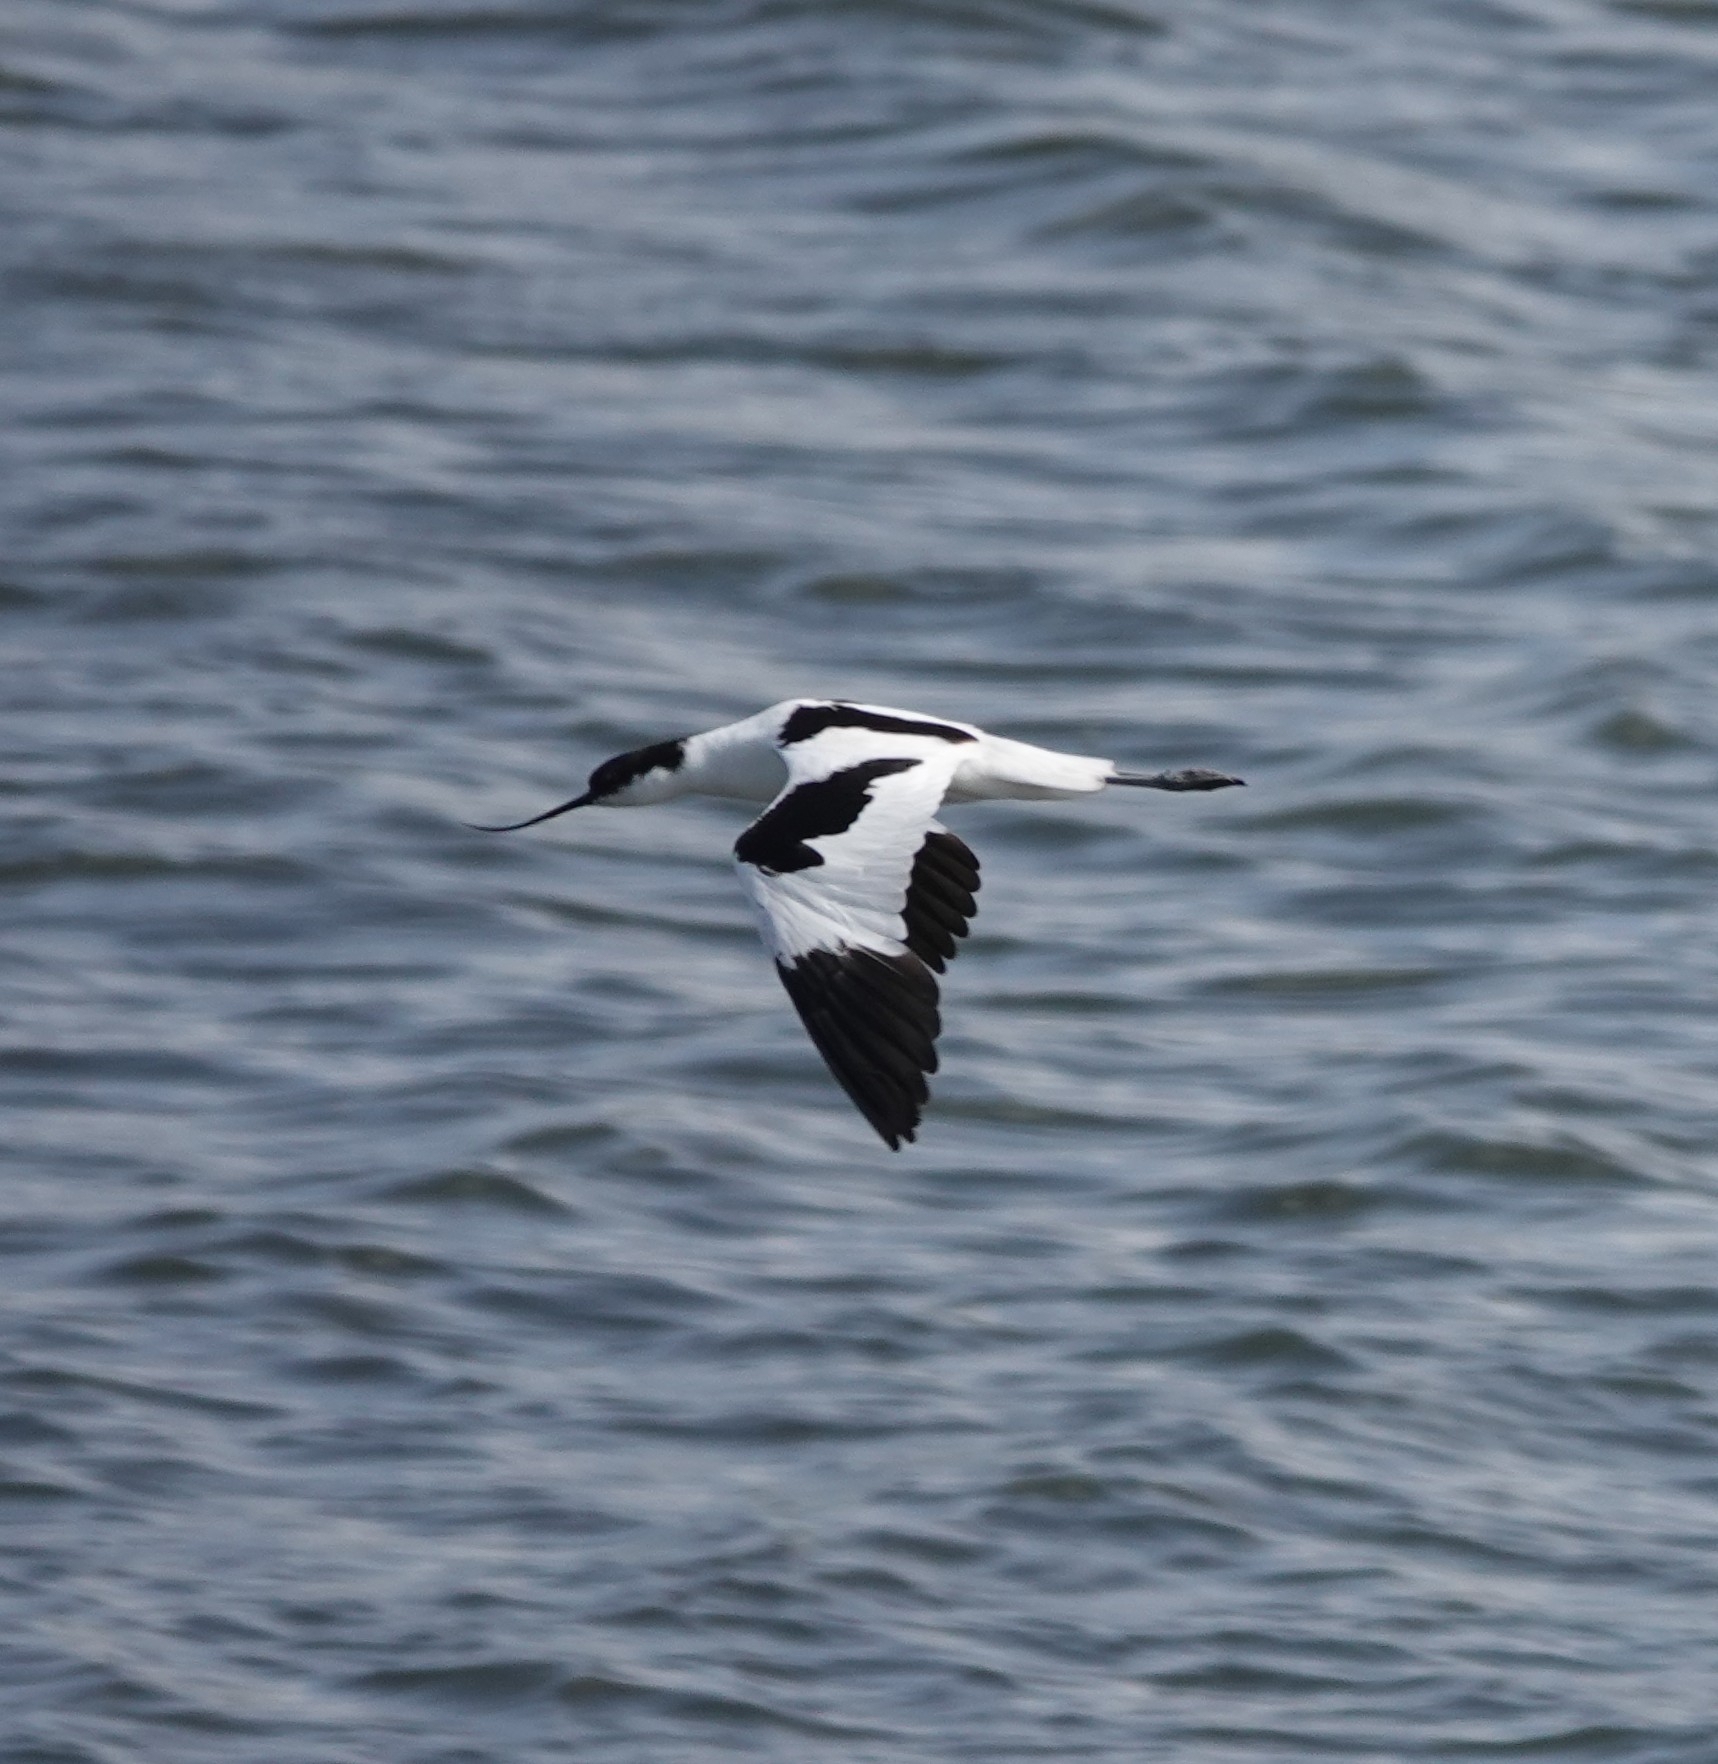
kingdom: Animalia
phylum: Chordata
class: Aves
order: Charadriiformes
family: Recurvirostridae
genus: Recurvirostra
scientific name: Recurvirostra avosetta
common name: Pied avocet
